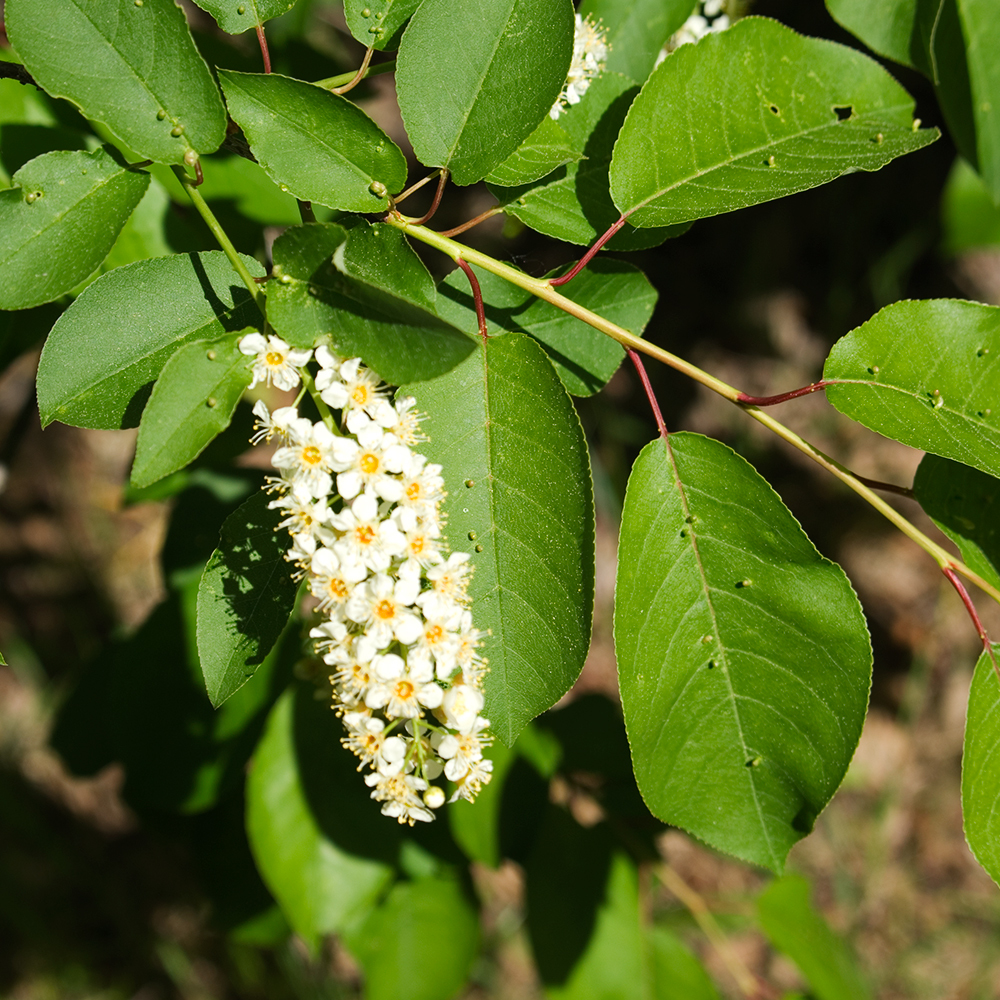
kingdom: Plantae
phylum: Tracheophyta
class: Magnoliopsida
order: Rosales
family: Rosaceae
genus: Prunus
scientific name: Prunus virginiana
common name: Chokecherry
